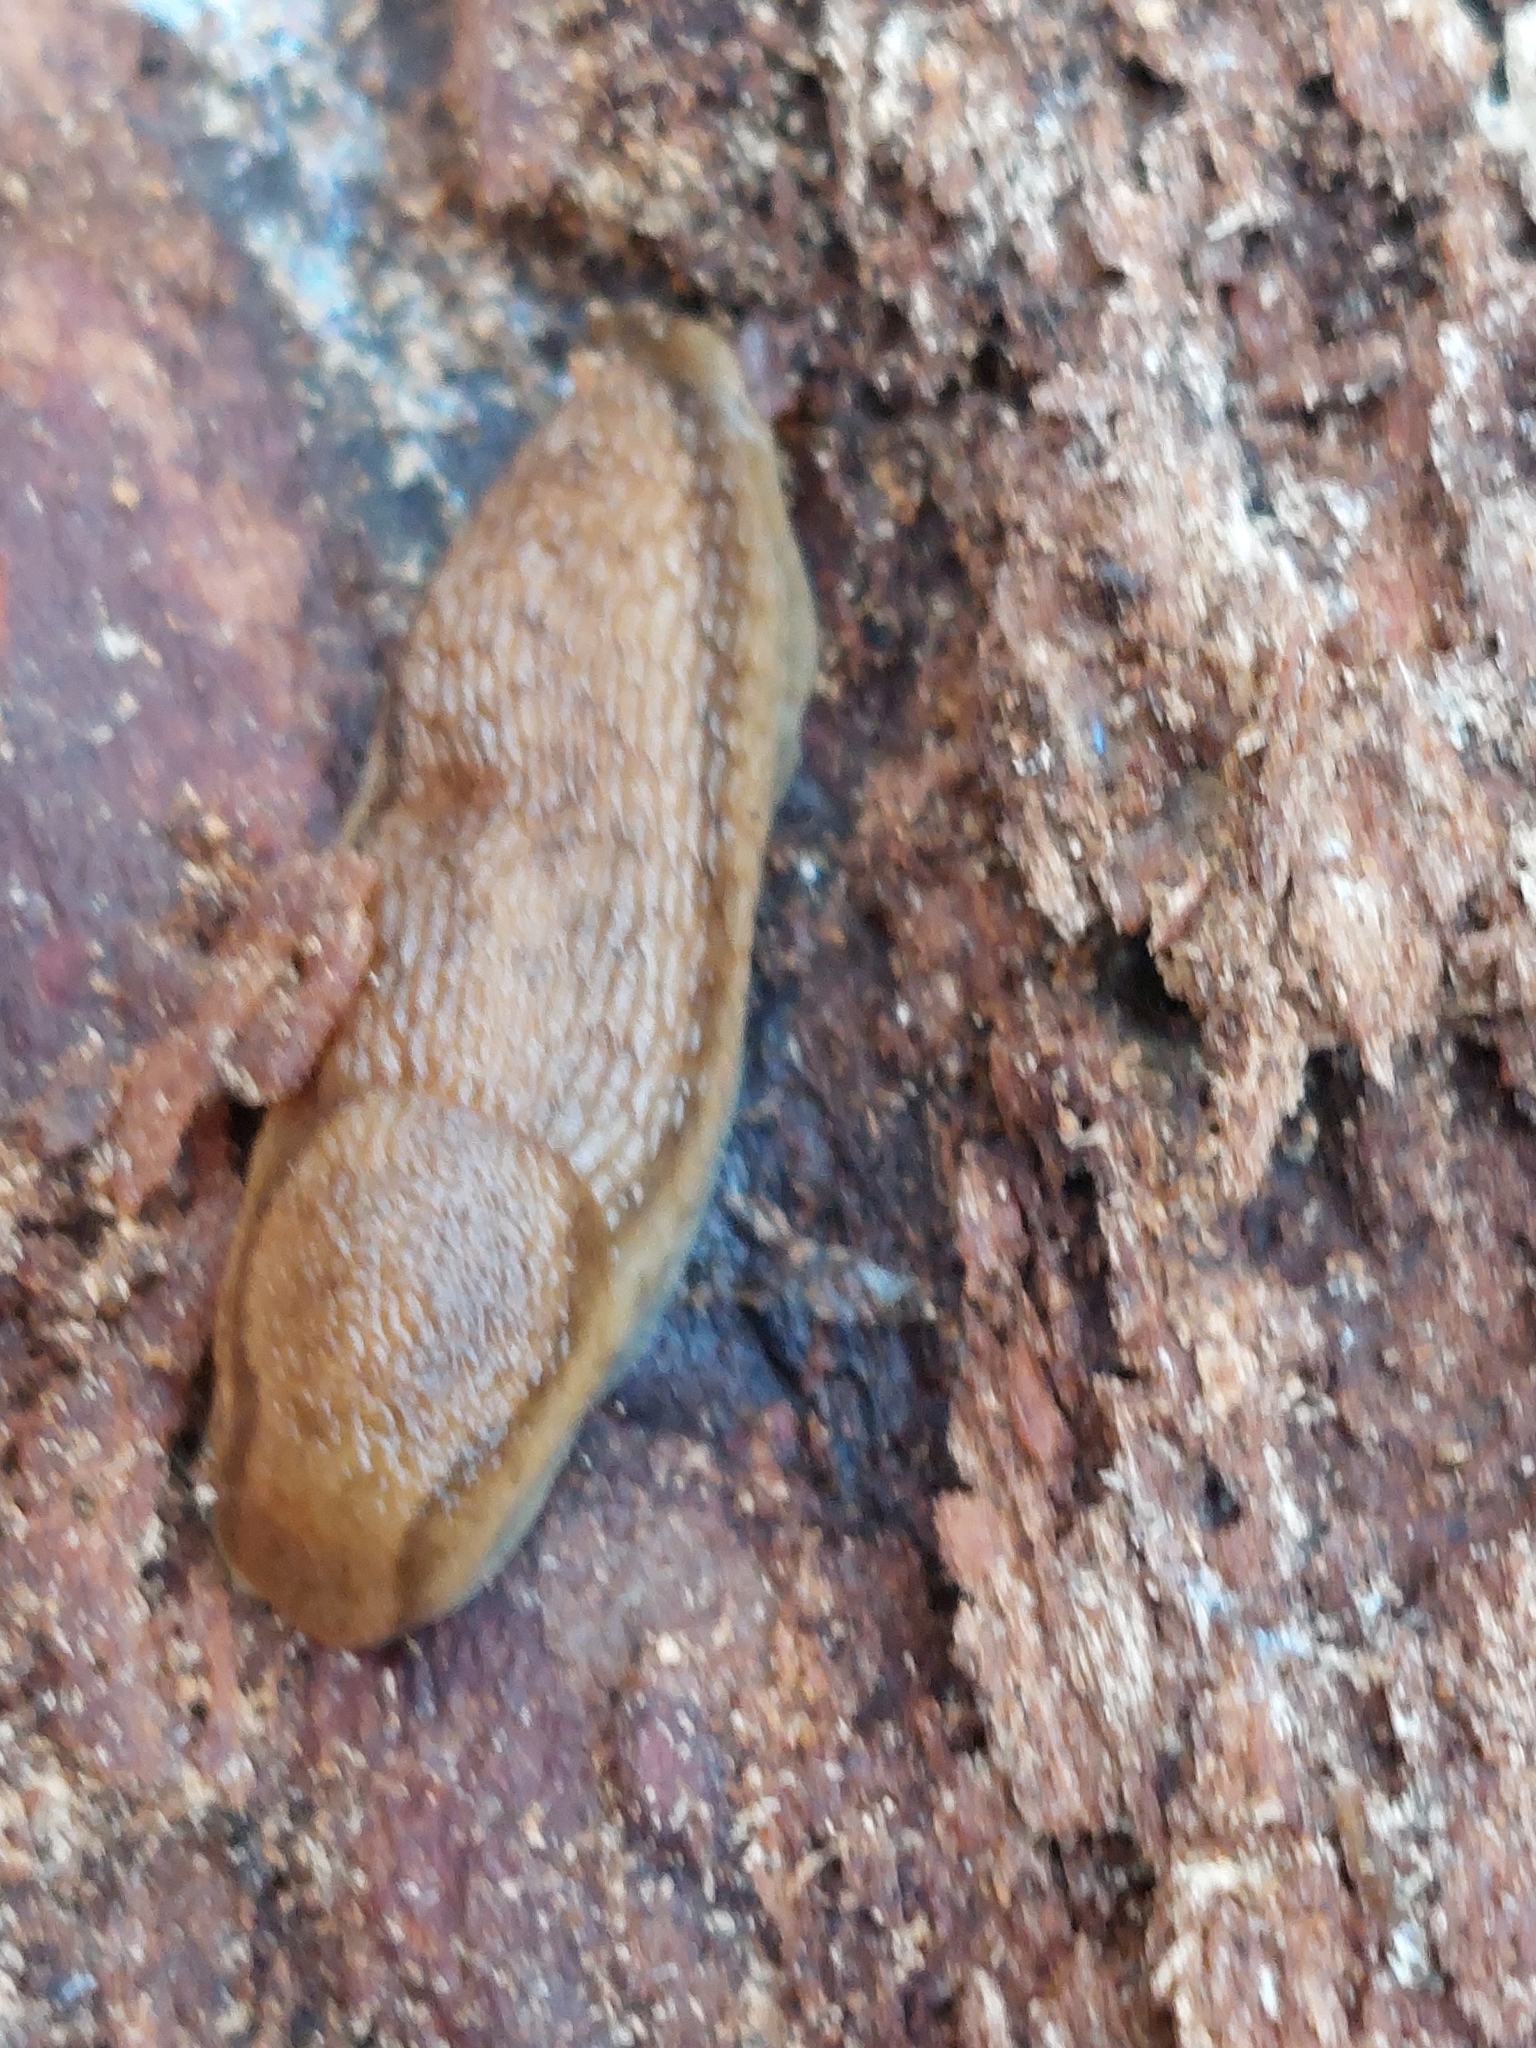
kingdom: Animalia
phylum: Mollusca
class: Gastropoda
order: Stylommatophora
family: Arionidae
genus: Arion
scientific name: Arion fuscus
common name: Northern dusky slug
